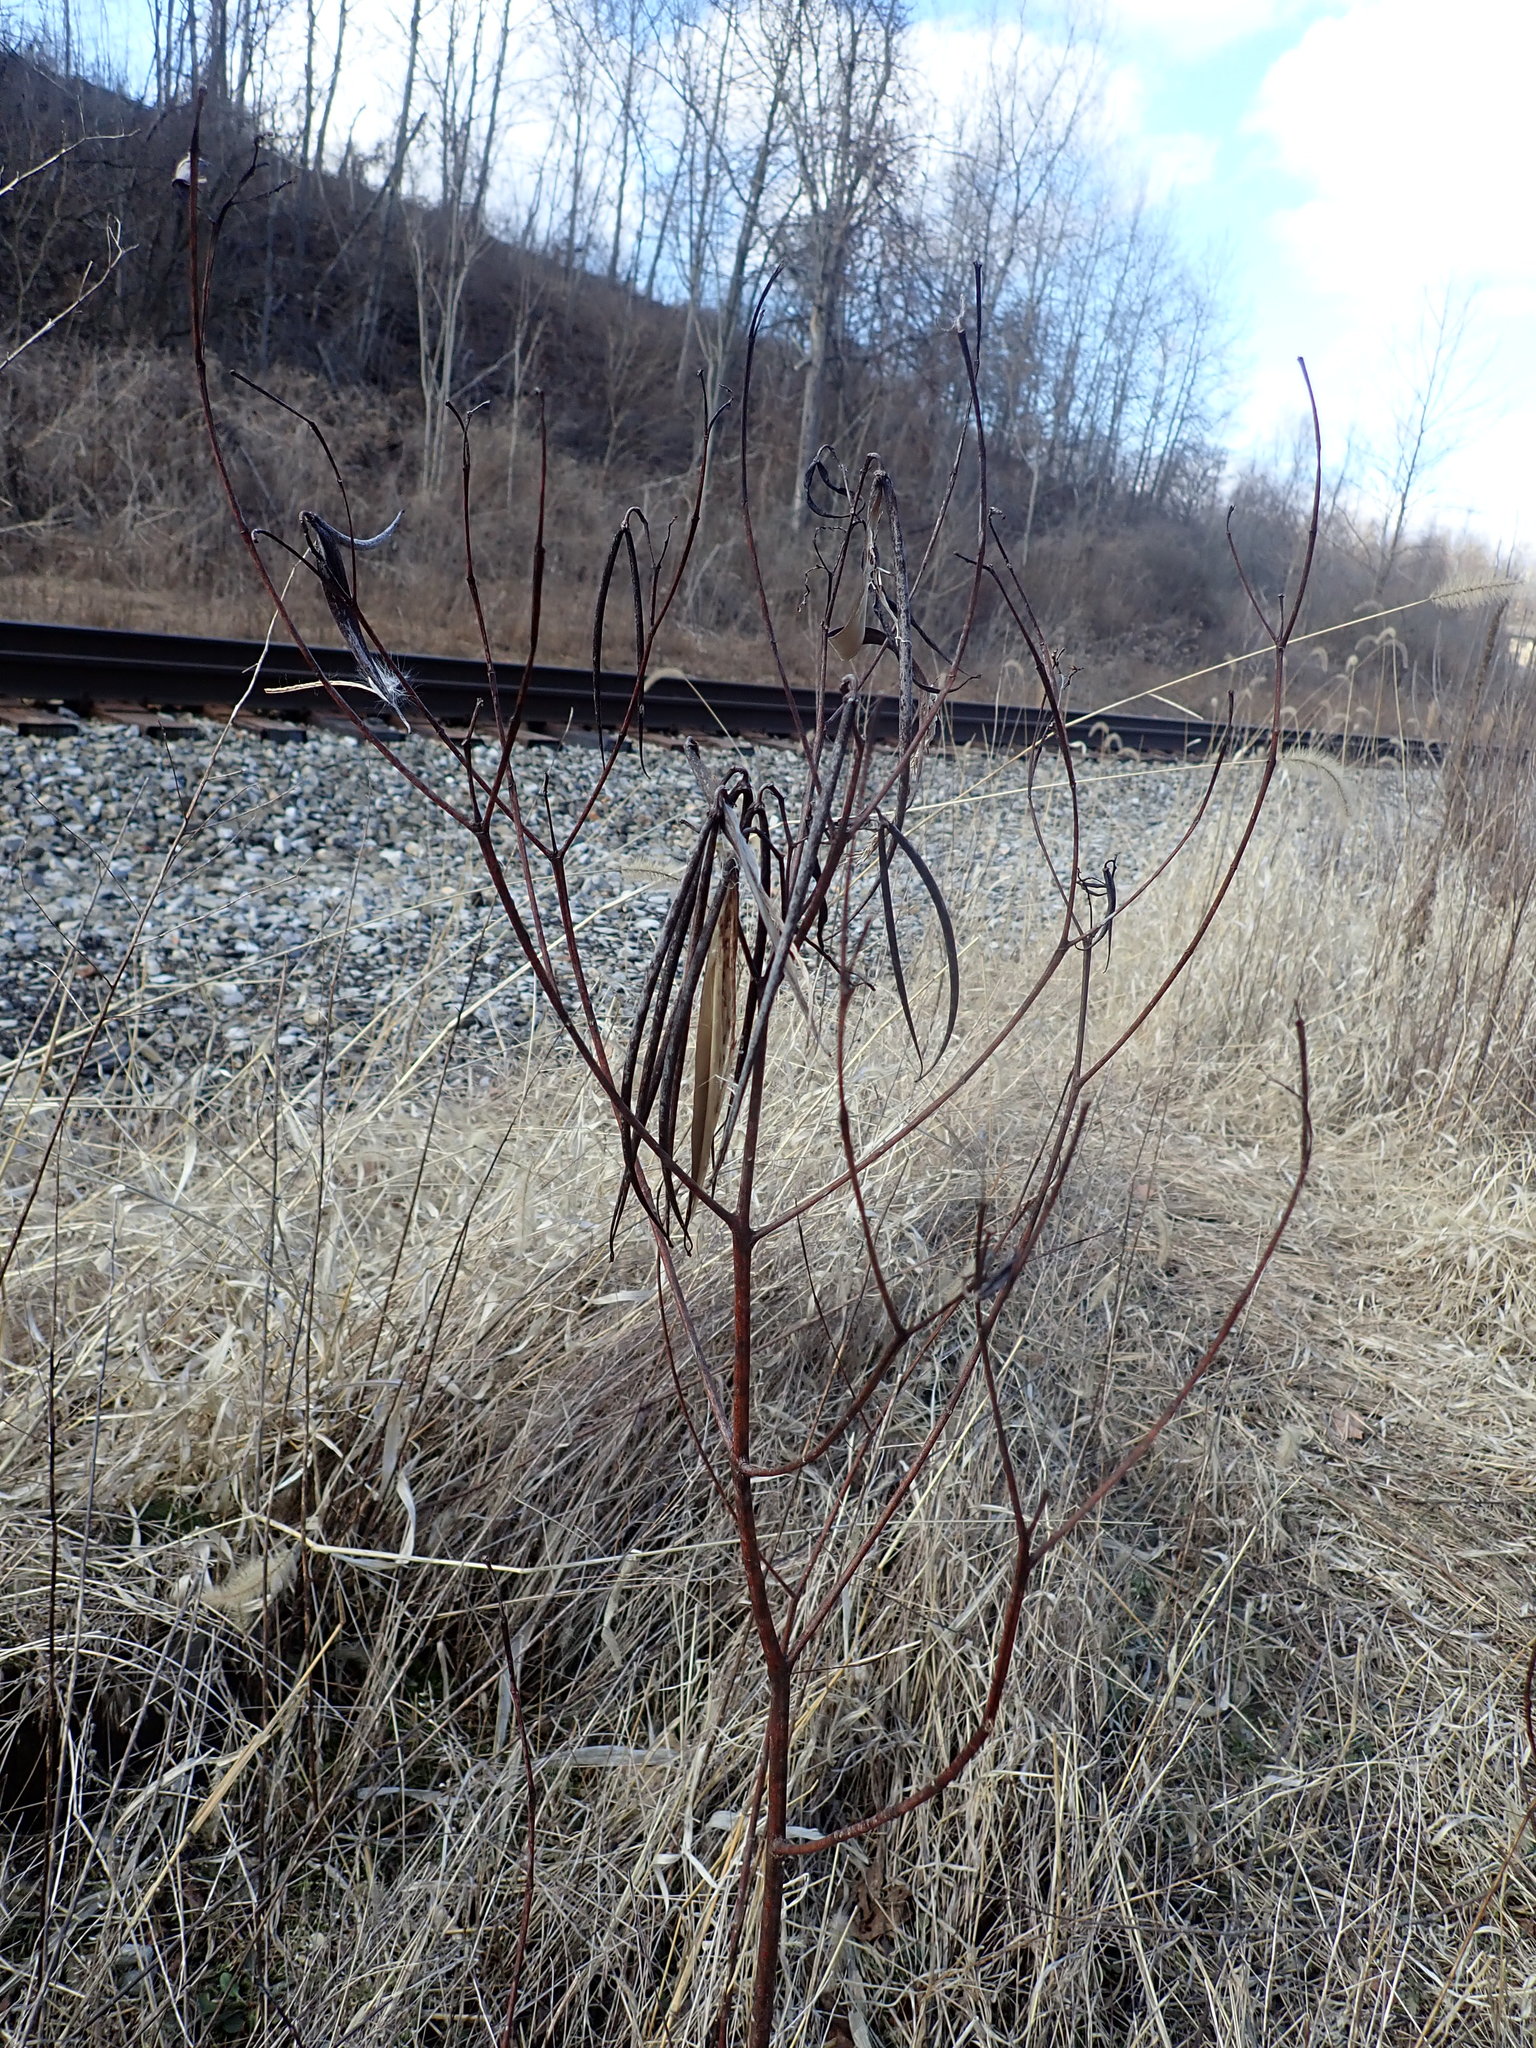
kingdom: Plantae
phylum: Tracheophyta
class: Magnoliopsida
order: Gentianales
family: Apocynaceae
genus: Apocynum
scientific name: Apocynum cannabinum
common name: Hemp dogbane
